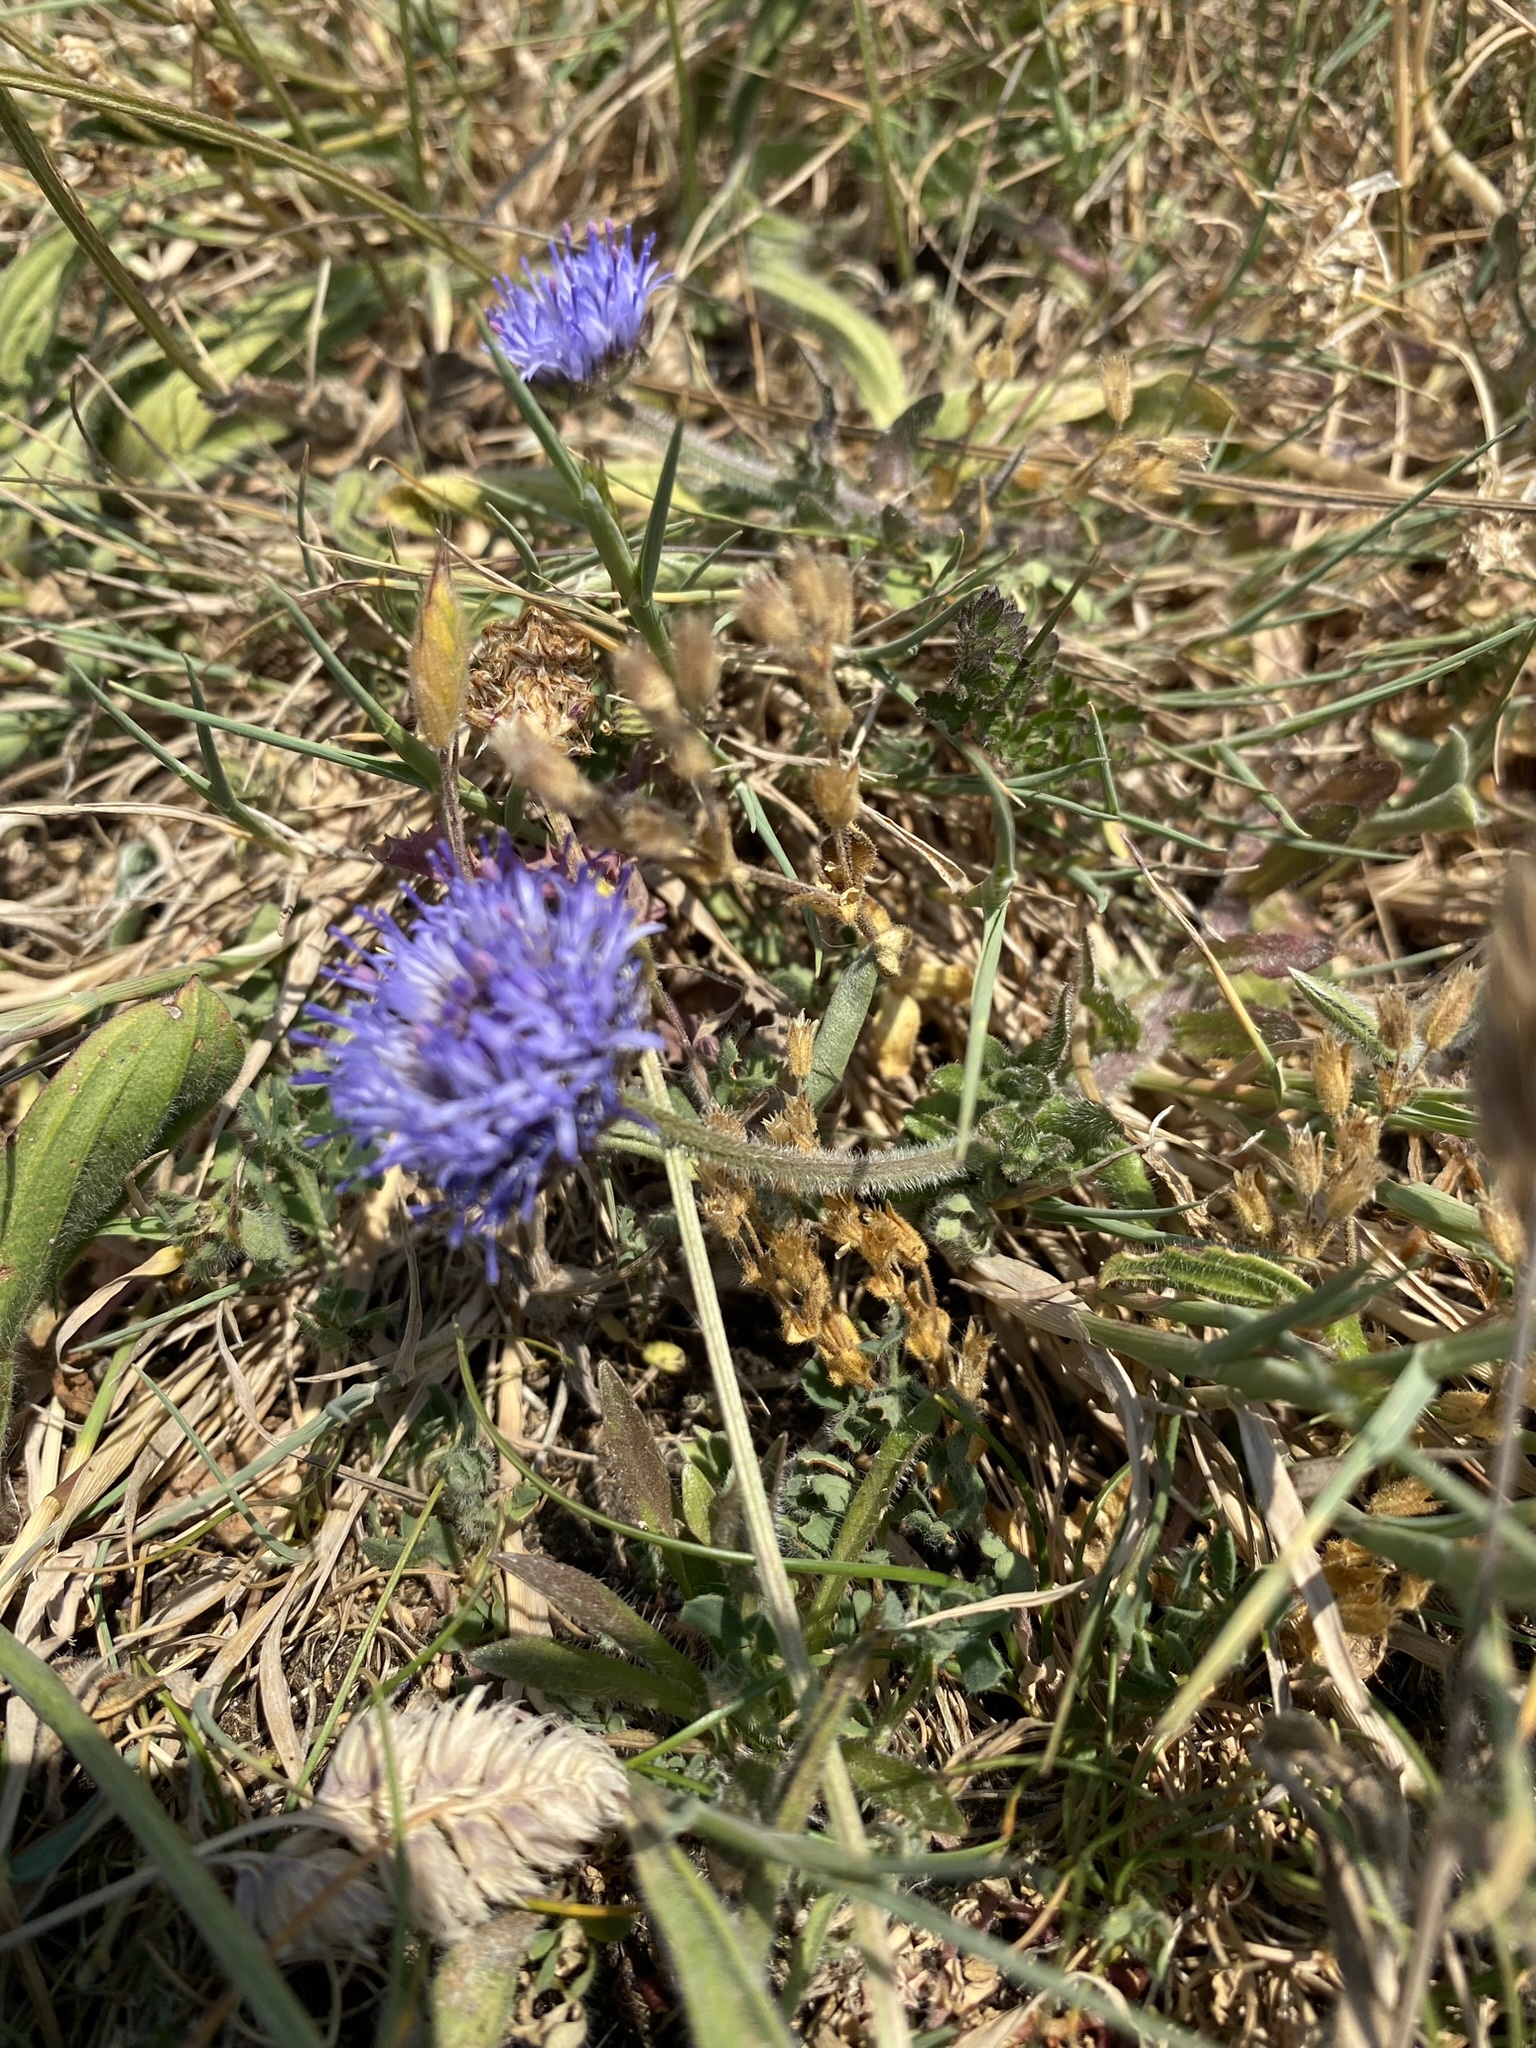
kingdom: Plantae
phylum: Tracheophyta
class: Magnoliopsida
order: Asterales
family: Campanulaceae
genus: Jasione
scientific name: Jasione montana
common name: Sheep's-bit
